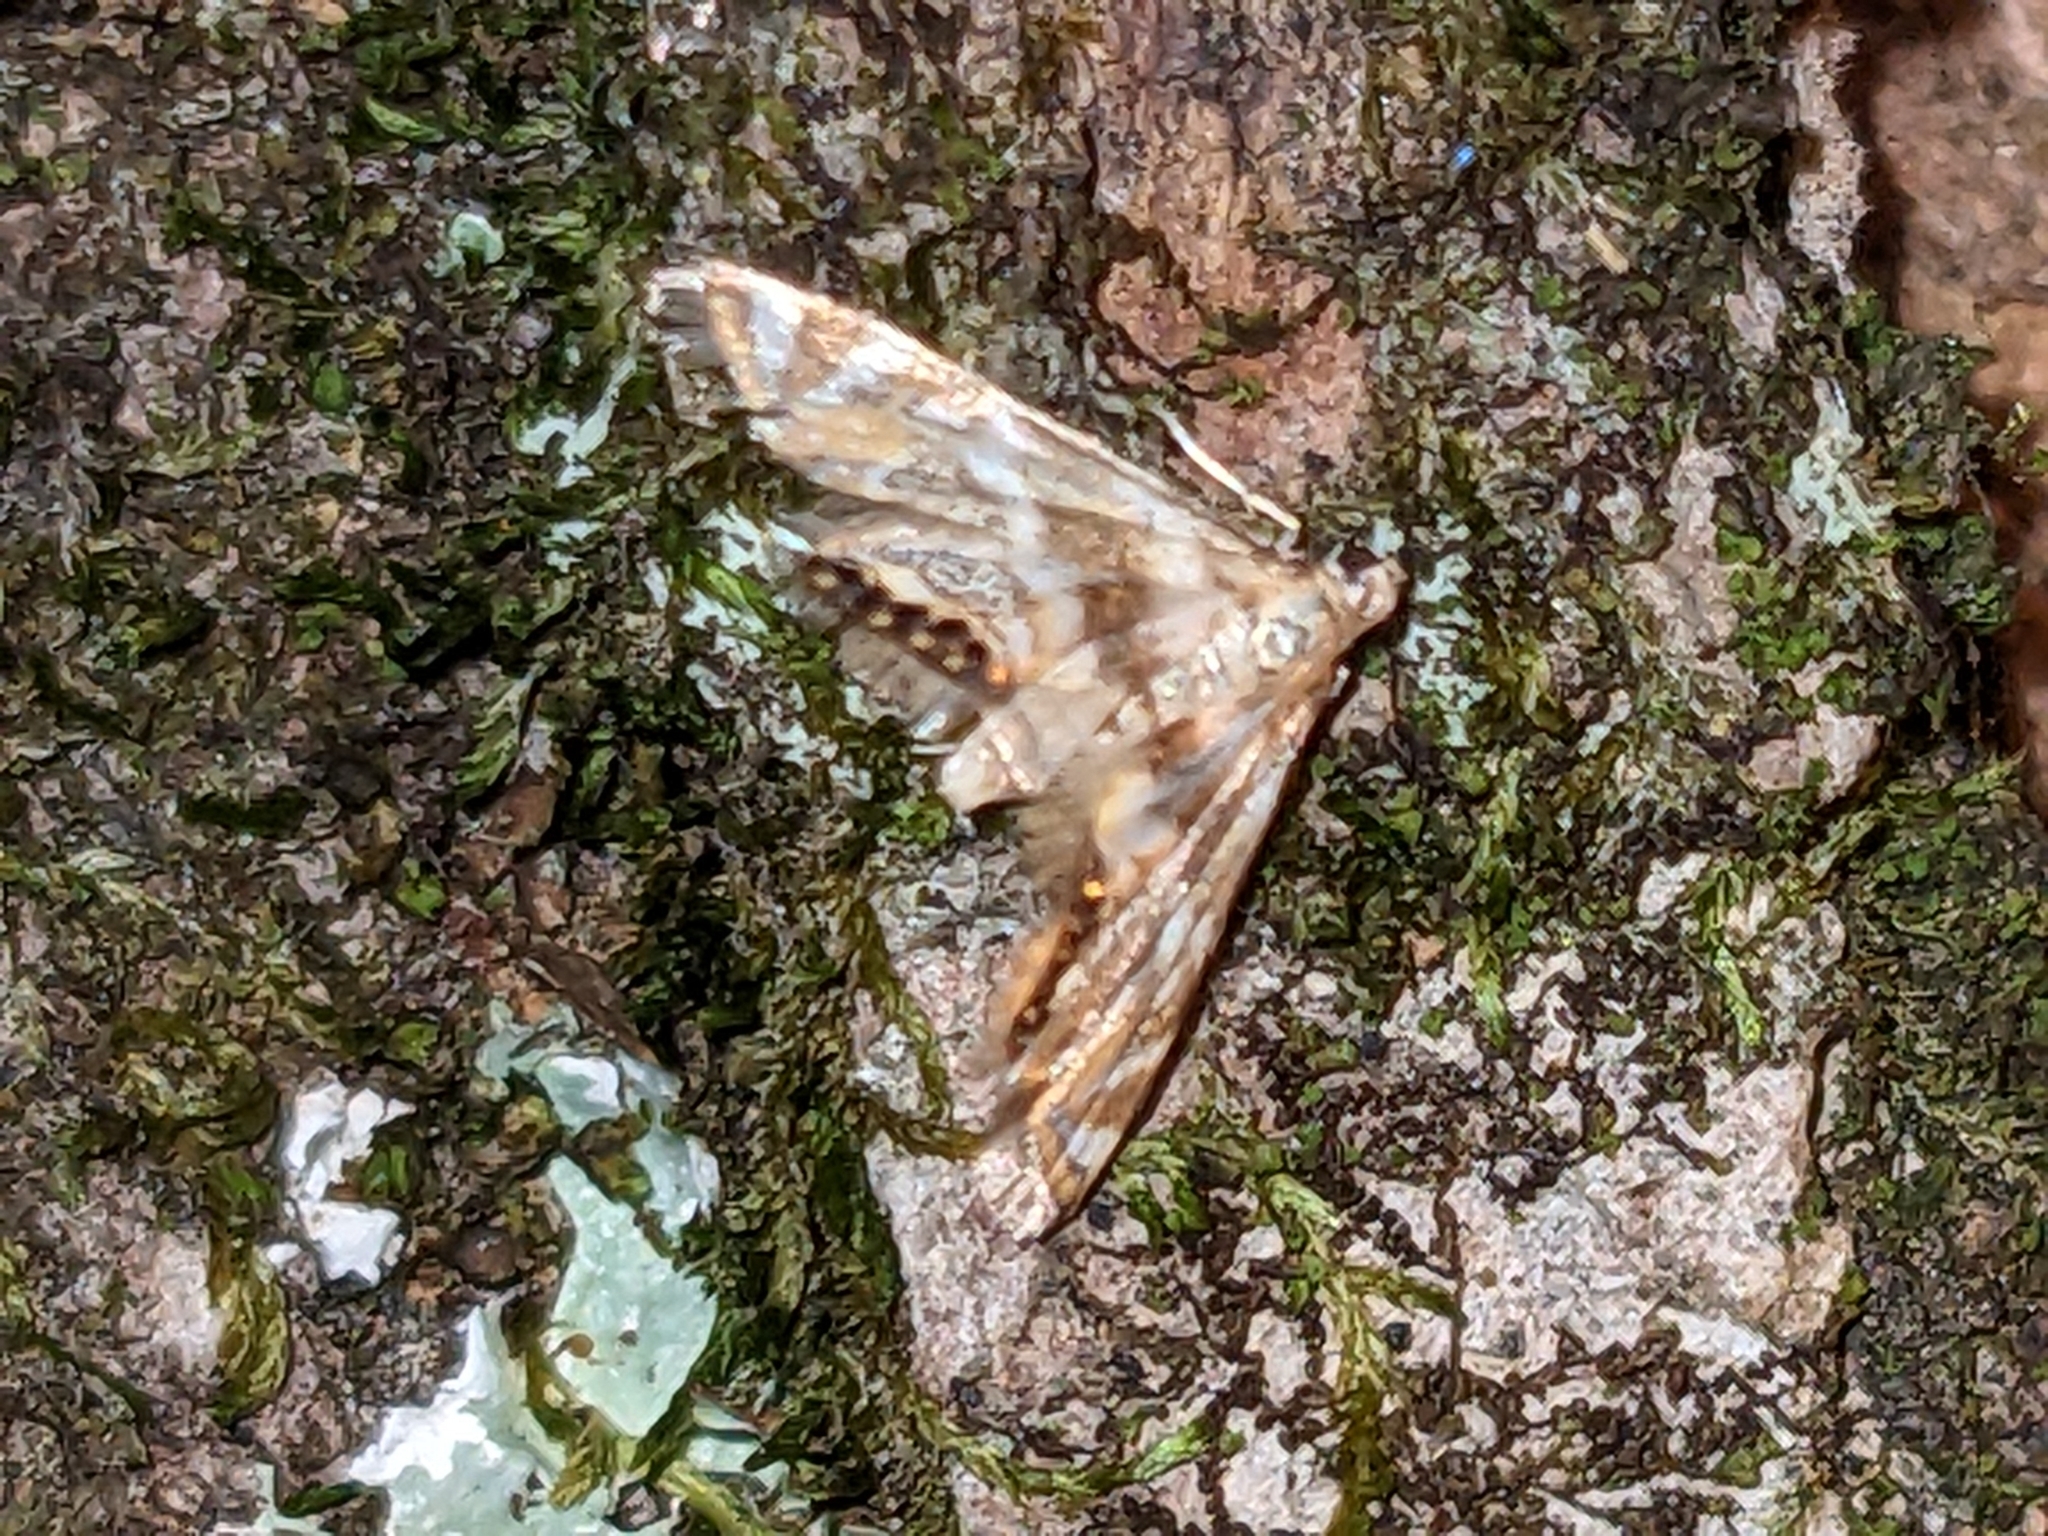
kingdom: Animalia
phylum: Arthropoda
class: Insecta
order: Lepidoptera
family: Crambidae
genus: Petrophila
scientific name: Petrophila canadensis
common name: Canadian petrophila
